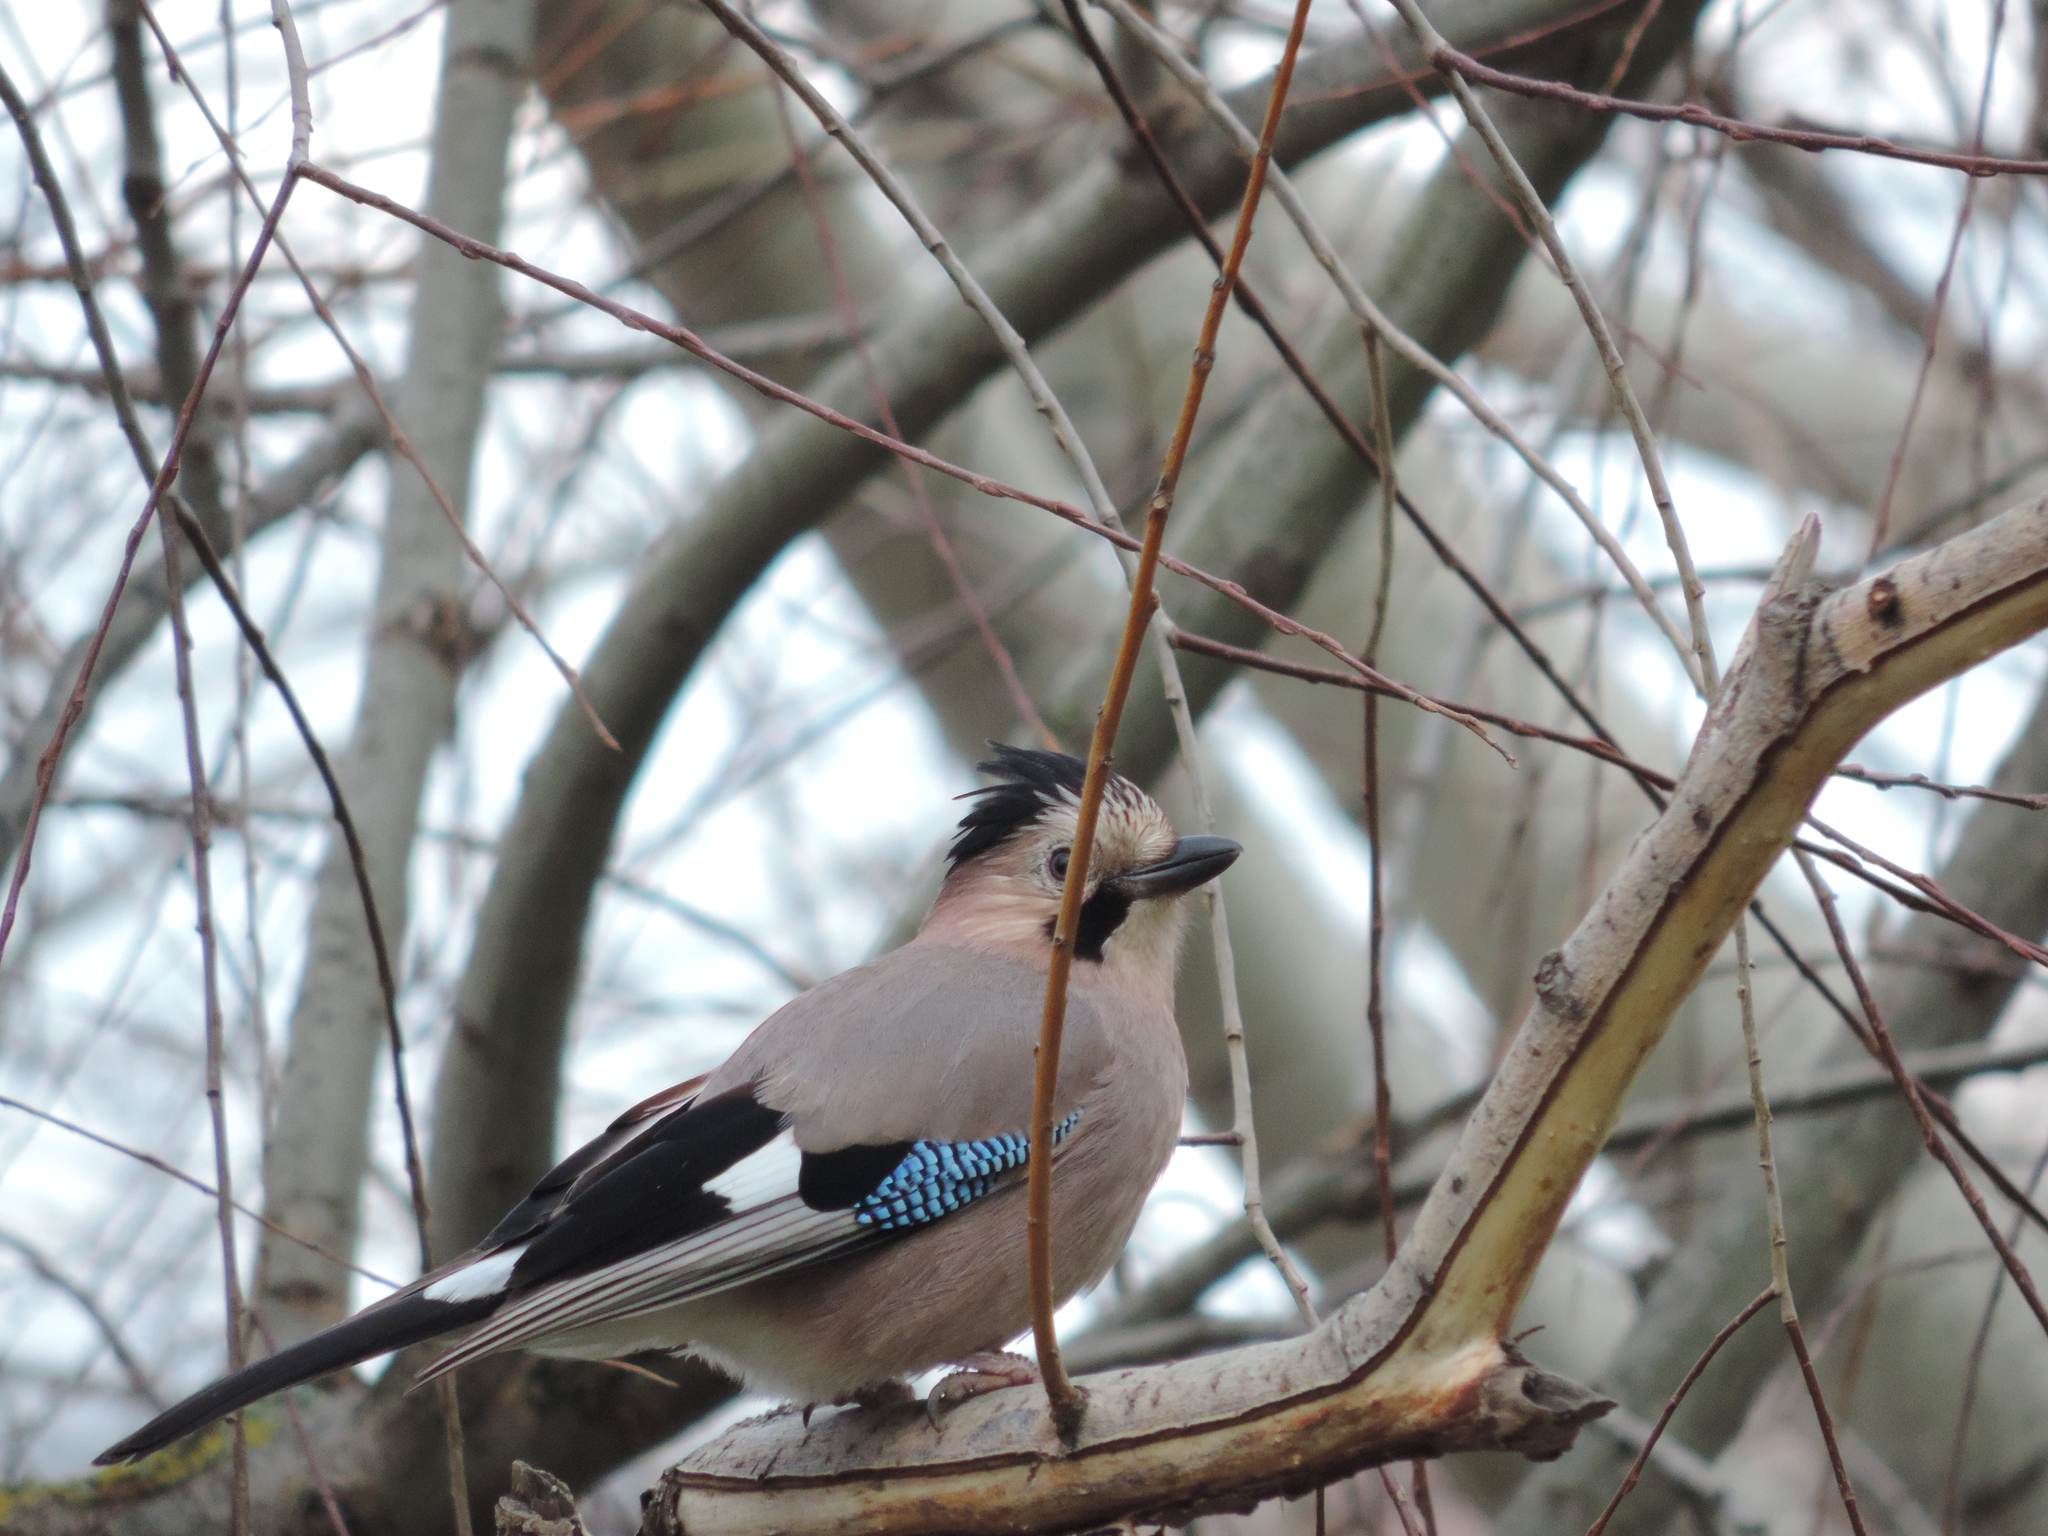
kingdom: Animalia
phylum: Chordata
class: Aves
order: Passeriformes
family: Corvidae
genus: Garrulus
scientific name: Garrulus glandarius
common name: Eurasian jay
